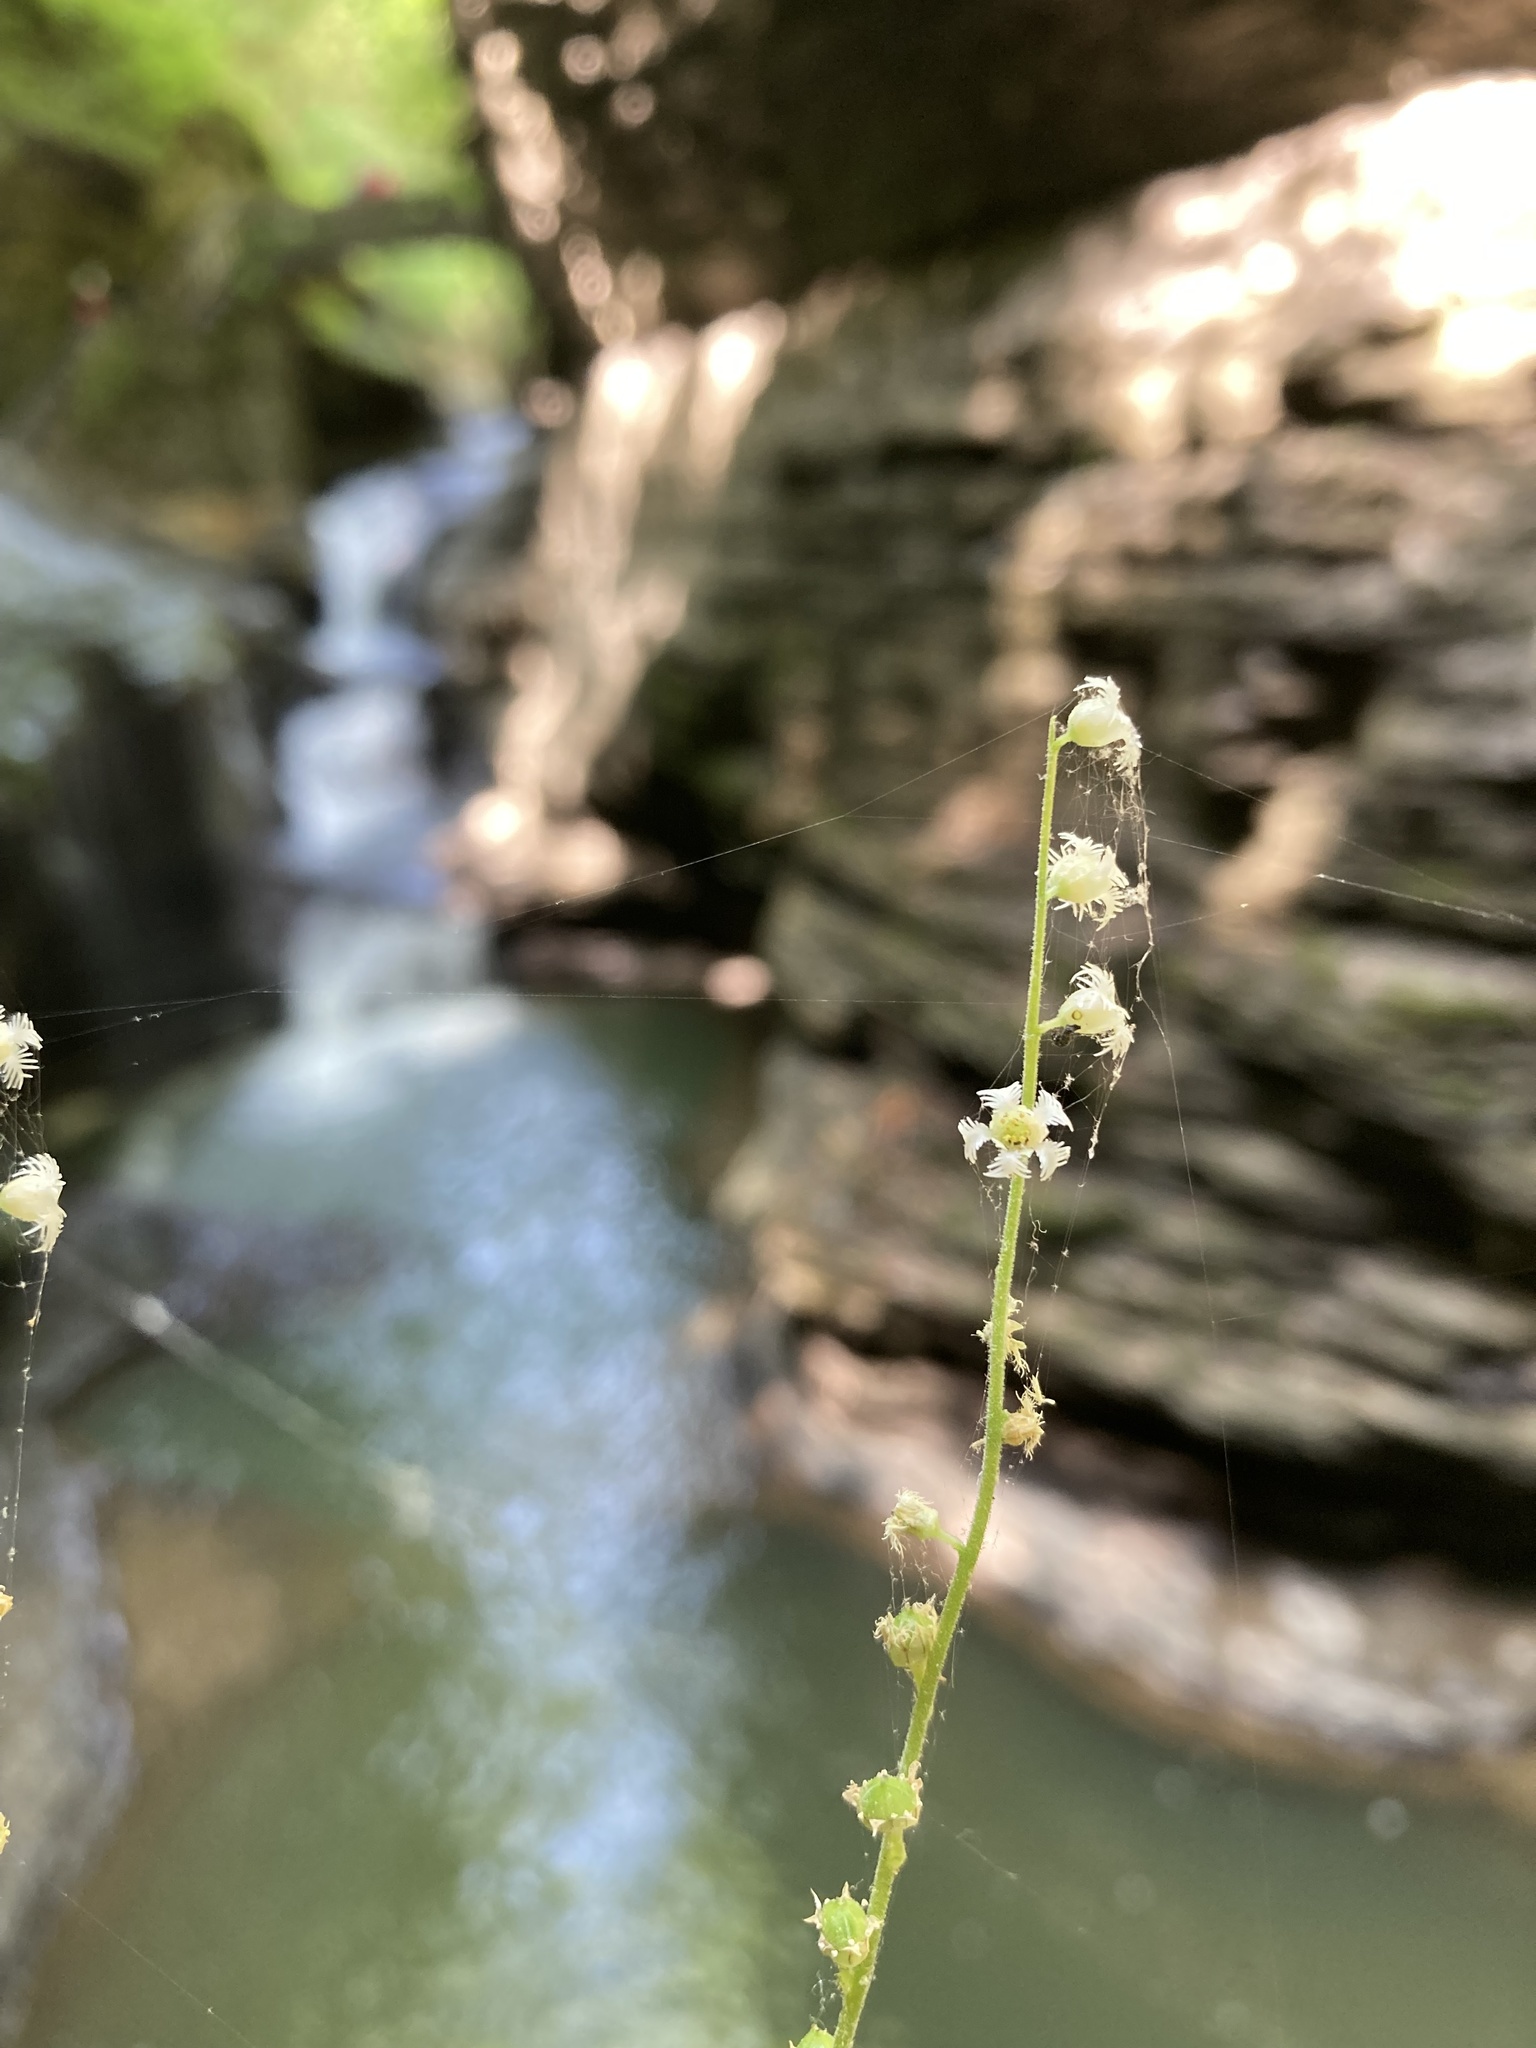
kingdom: Plantae
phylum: Tracheophyta
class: Magnoliopsida
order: Saxifragales
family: Saxifragaceae
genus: Mitella
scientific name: Mitella diphylla
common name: Coolwort
